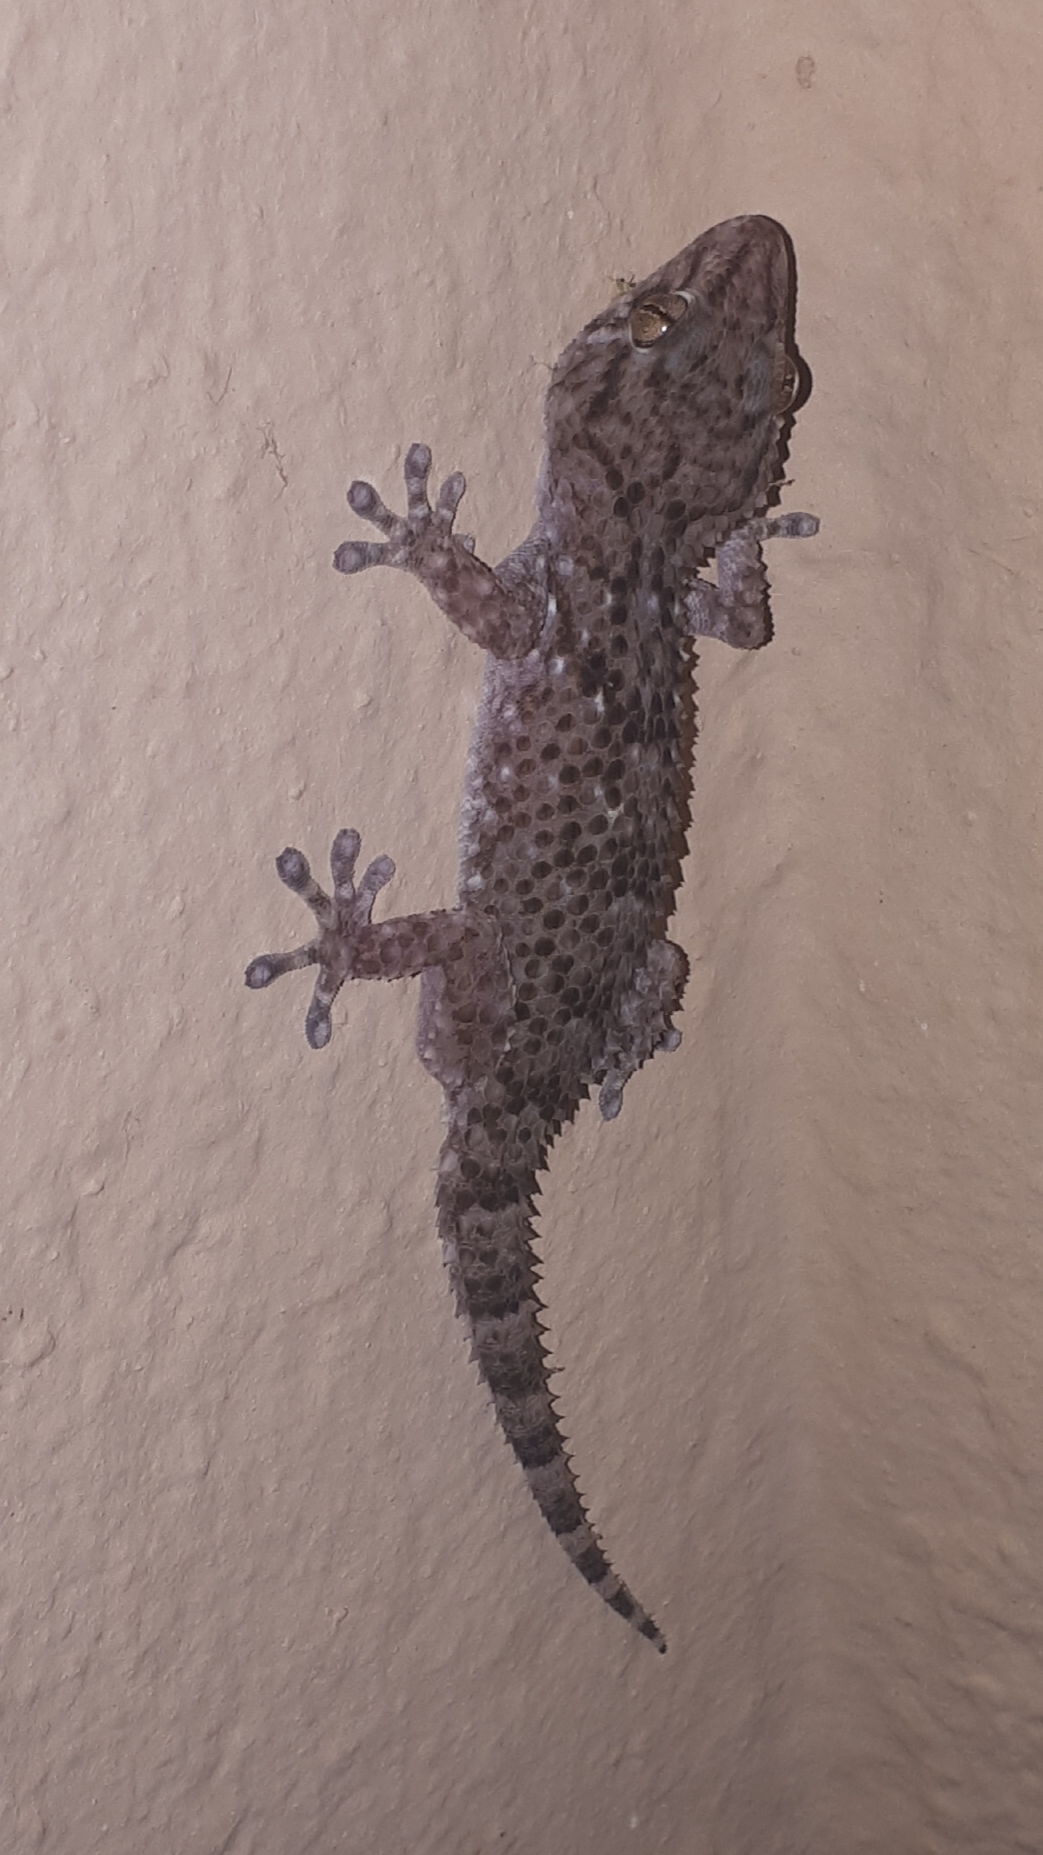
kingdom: Animalia
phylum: Chordata
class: Squamata
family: Gekkonidae
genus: Chondrodactylus
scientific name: Chondrodactylus turneri
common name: Turner’s gecko
